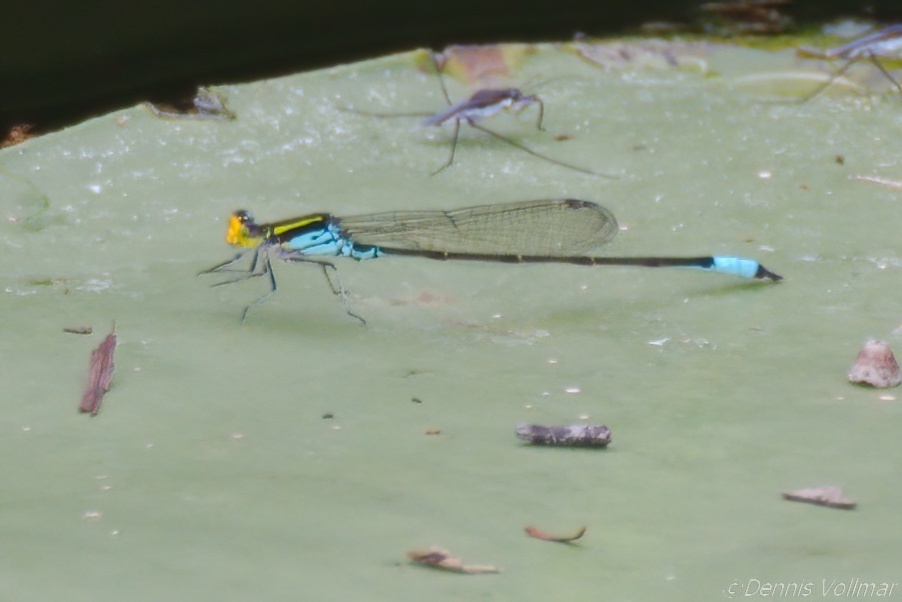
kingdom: Animalia
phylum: Arthropoda
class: Insecta
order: Odonata
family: Coenagrionidae
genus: Neoerythromma
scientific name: Neoerythromma cultellatum
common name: Caribbean yellowface
